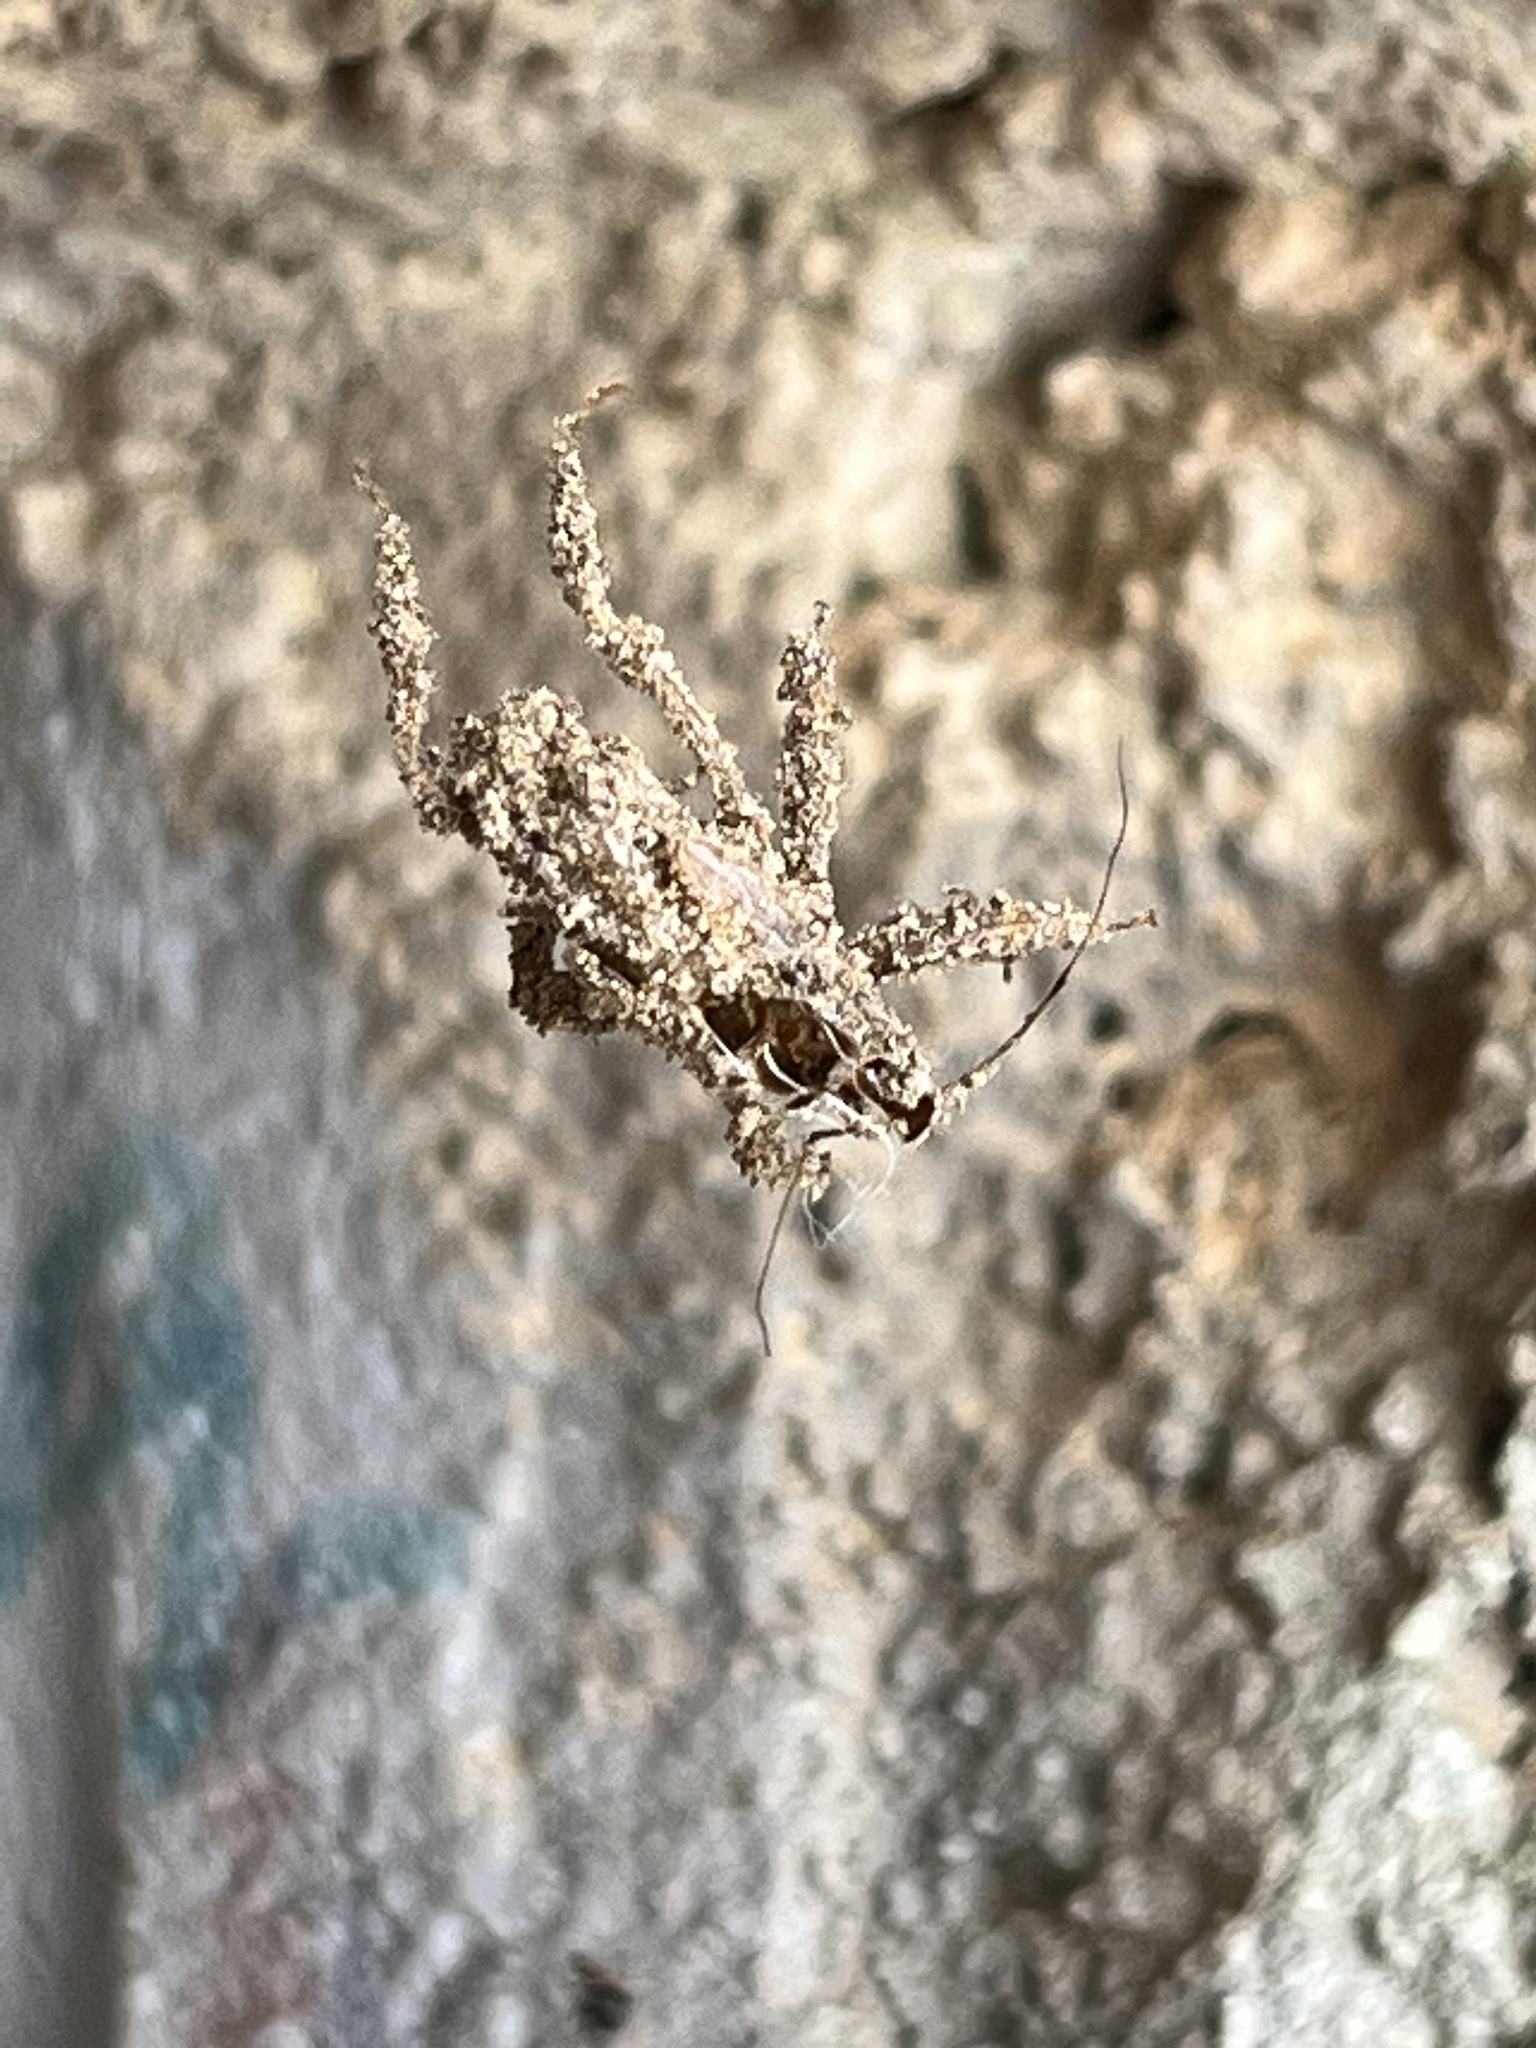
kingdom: Animalia
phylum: Arthropoda
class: Insecta
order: Hemiptera
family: Reduviidae
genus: Reduvius
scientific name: Reduvius personatus
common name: Masked hunter
